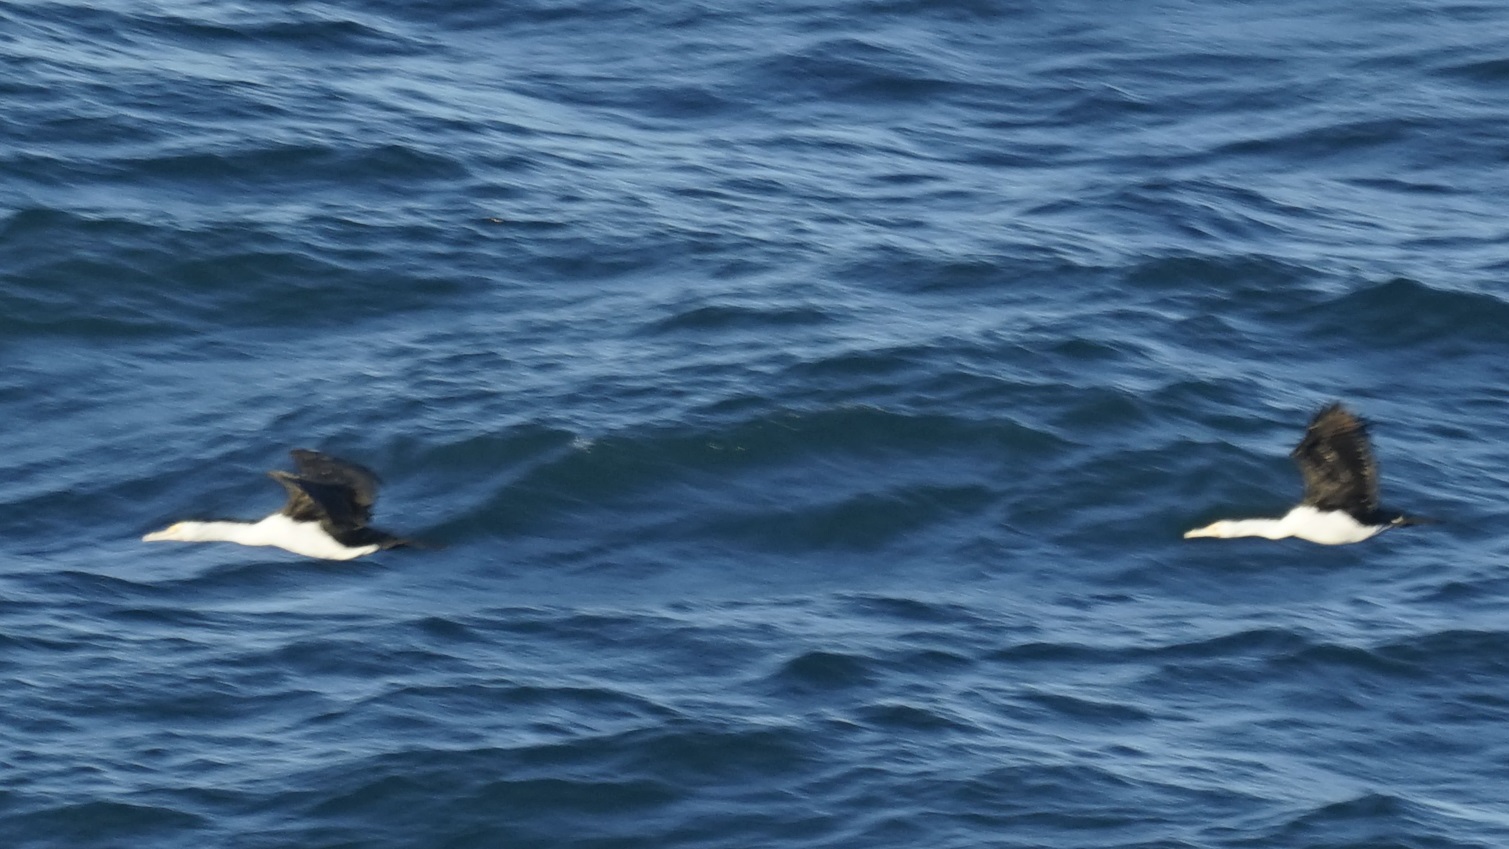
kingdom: Animalia
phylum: Chordata
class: Aves
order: Suliformes
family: Phalacrocoracidae
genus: Phalacrocorax
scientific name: Phalacrocorax varius
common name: Pied cormorant
